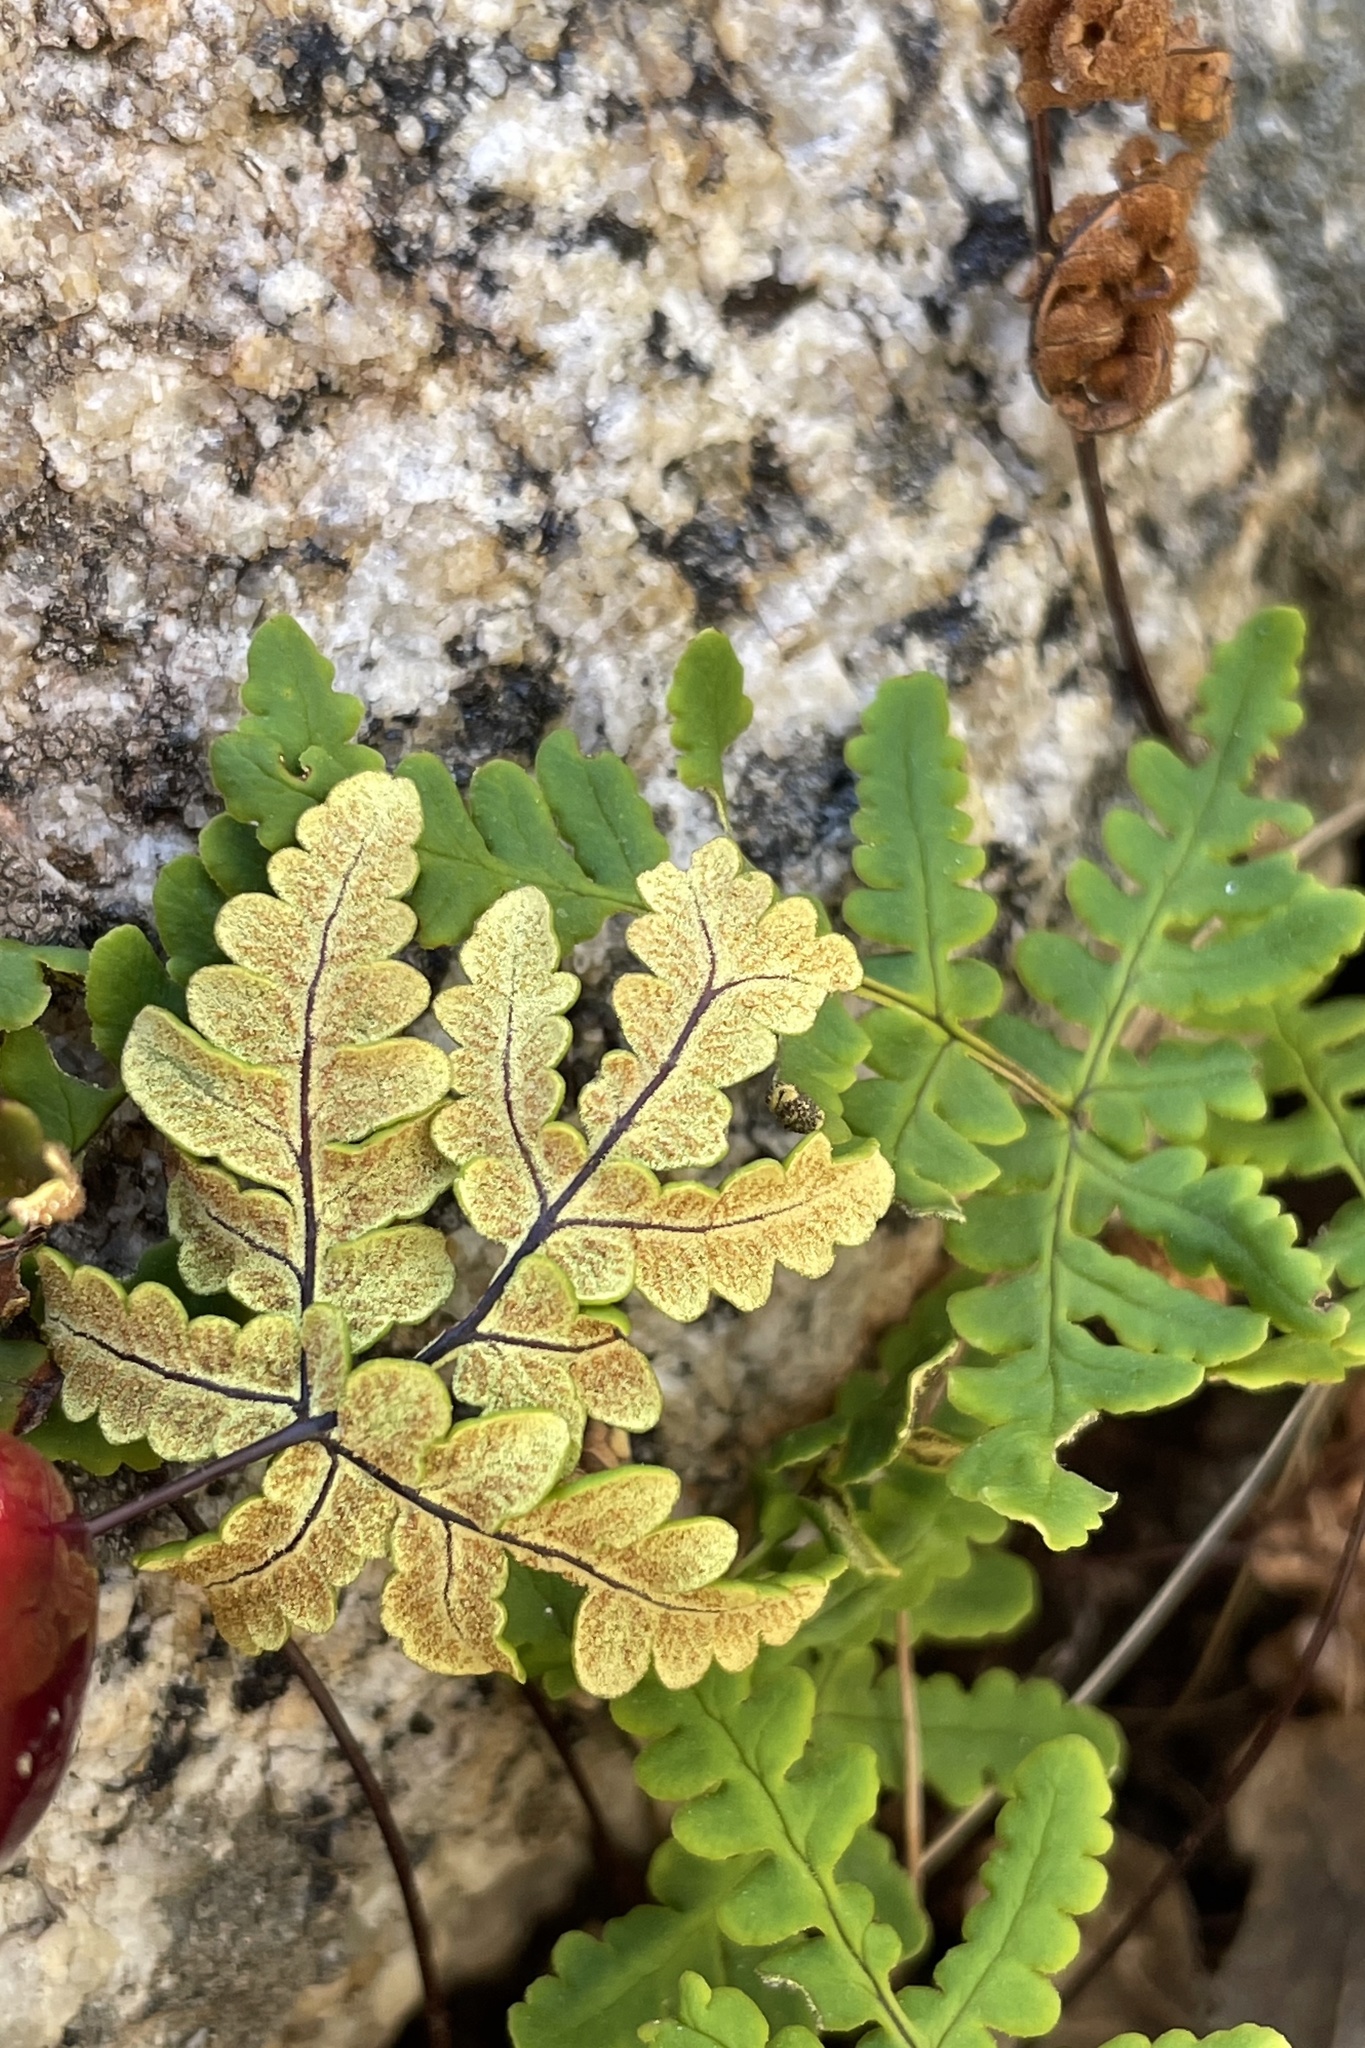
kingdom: Plantae
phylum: Tracheophyta
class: Polypodiopsida
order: Polypodiales
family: Pteridaceae
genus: Pentagramma
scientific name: Pentagramma triangularis
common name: Gold fern
